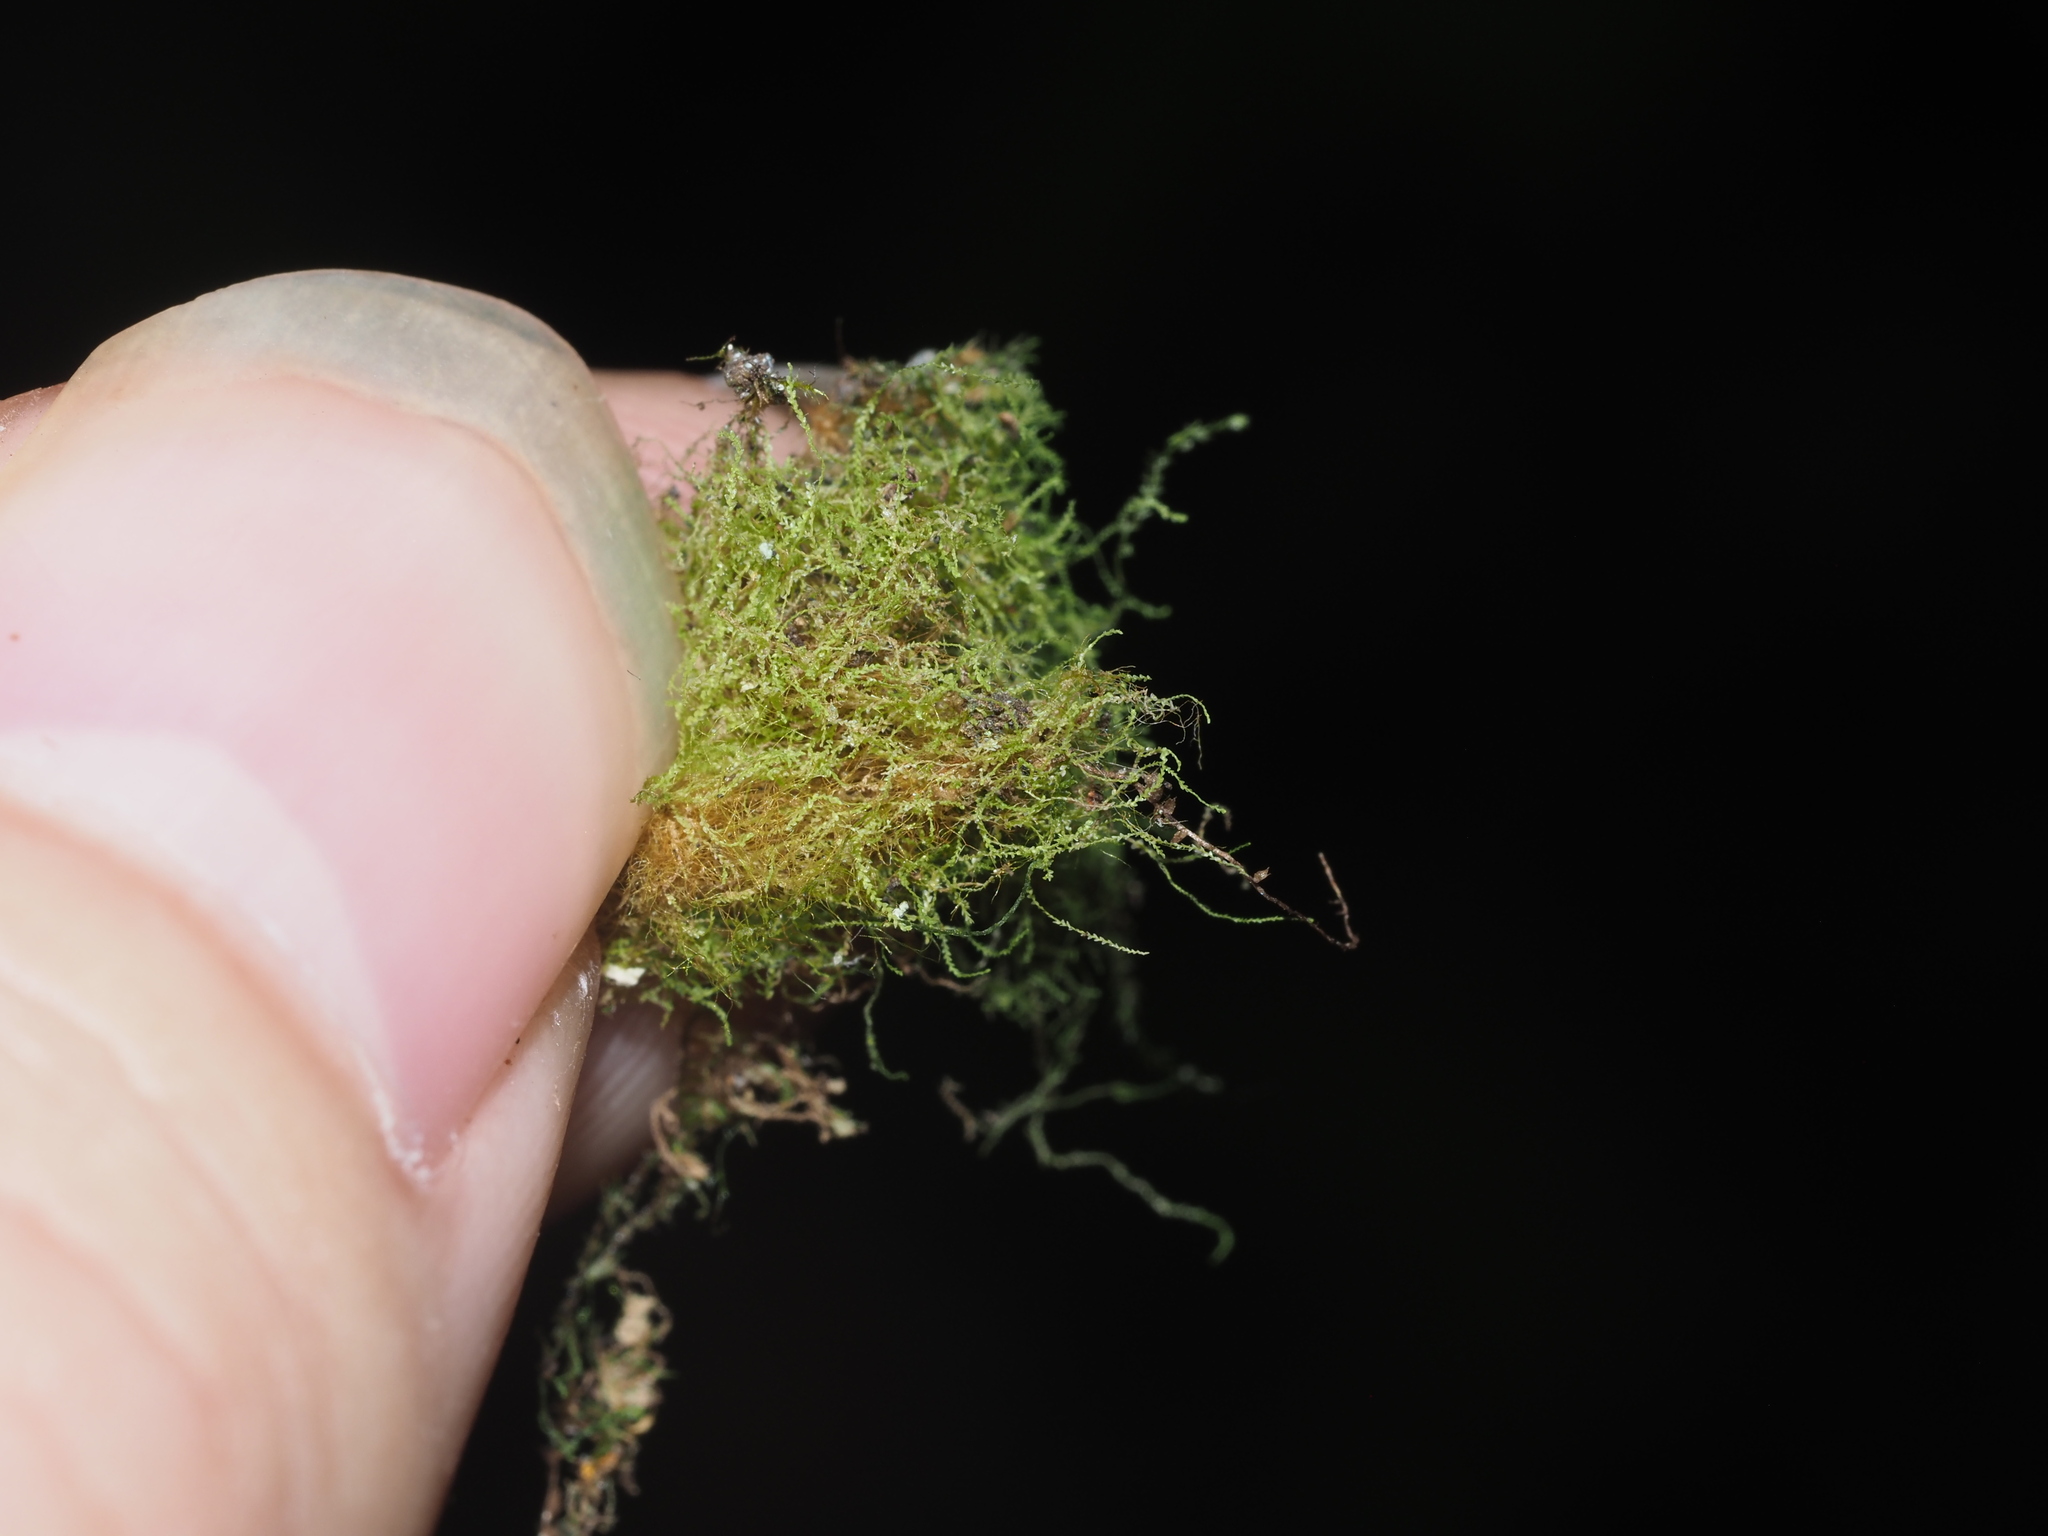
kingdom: Plantae
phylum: Marchantiophyta
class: Jungermanniopsida
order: Porellales
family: Lejeuneaceae
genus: Lejeunea
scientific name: Lejeunea laetevirens
